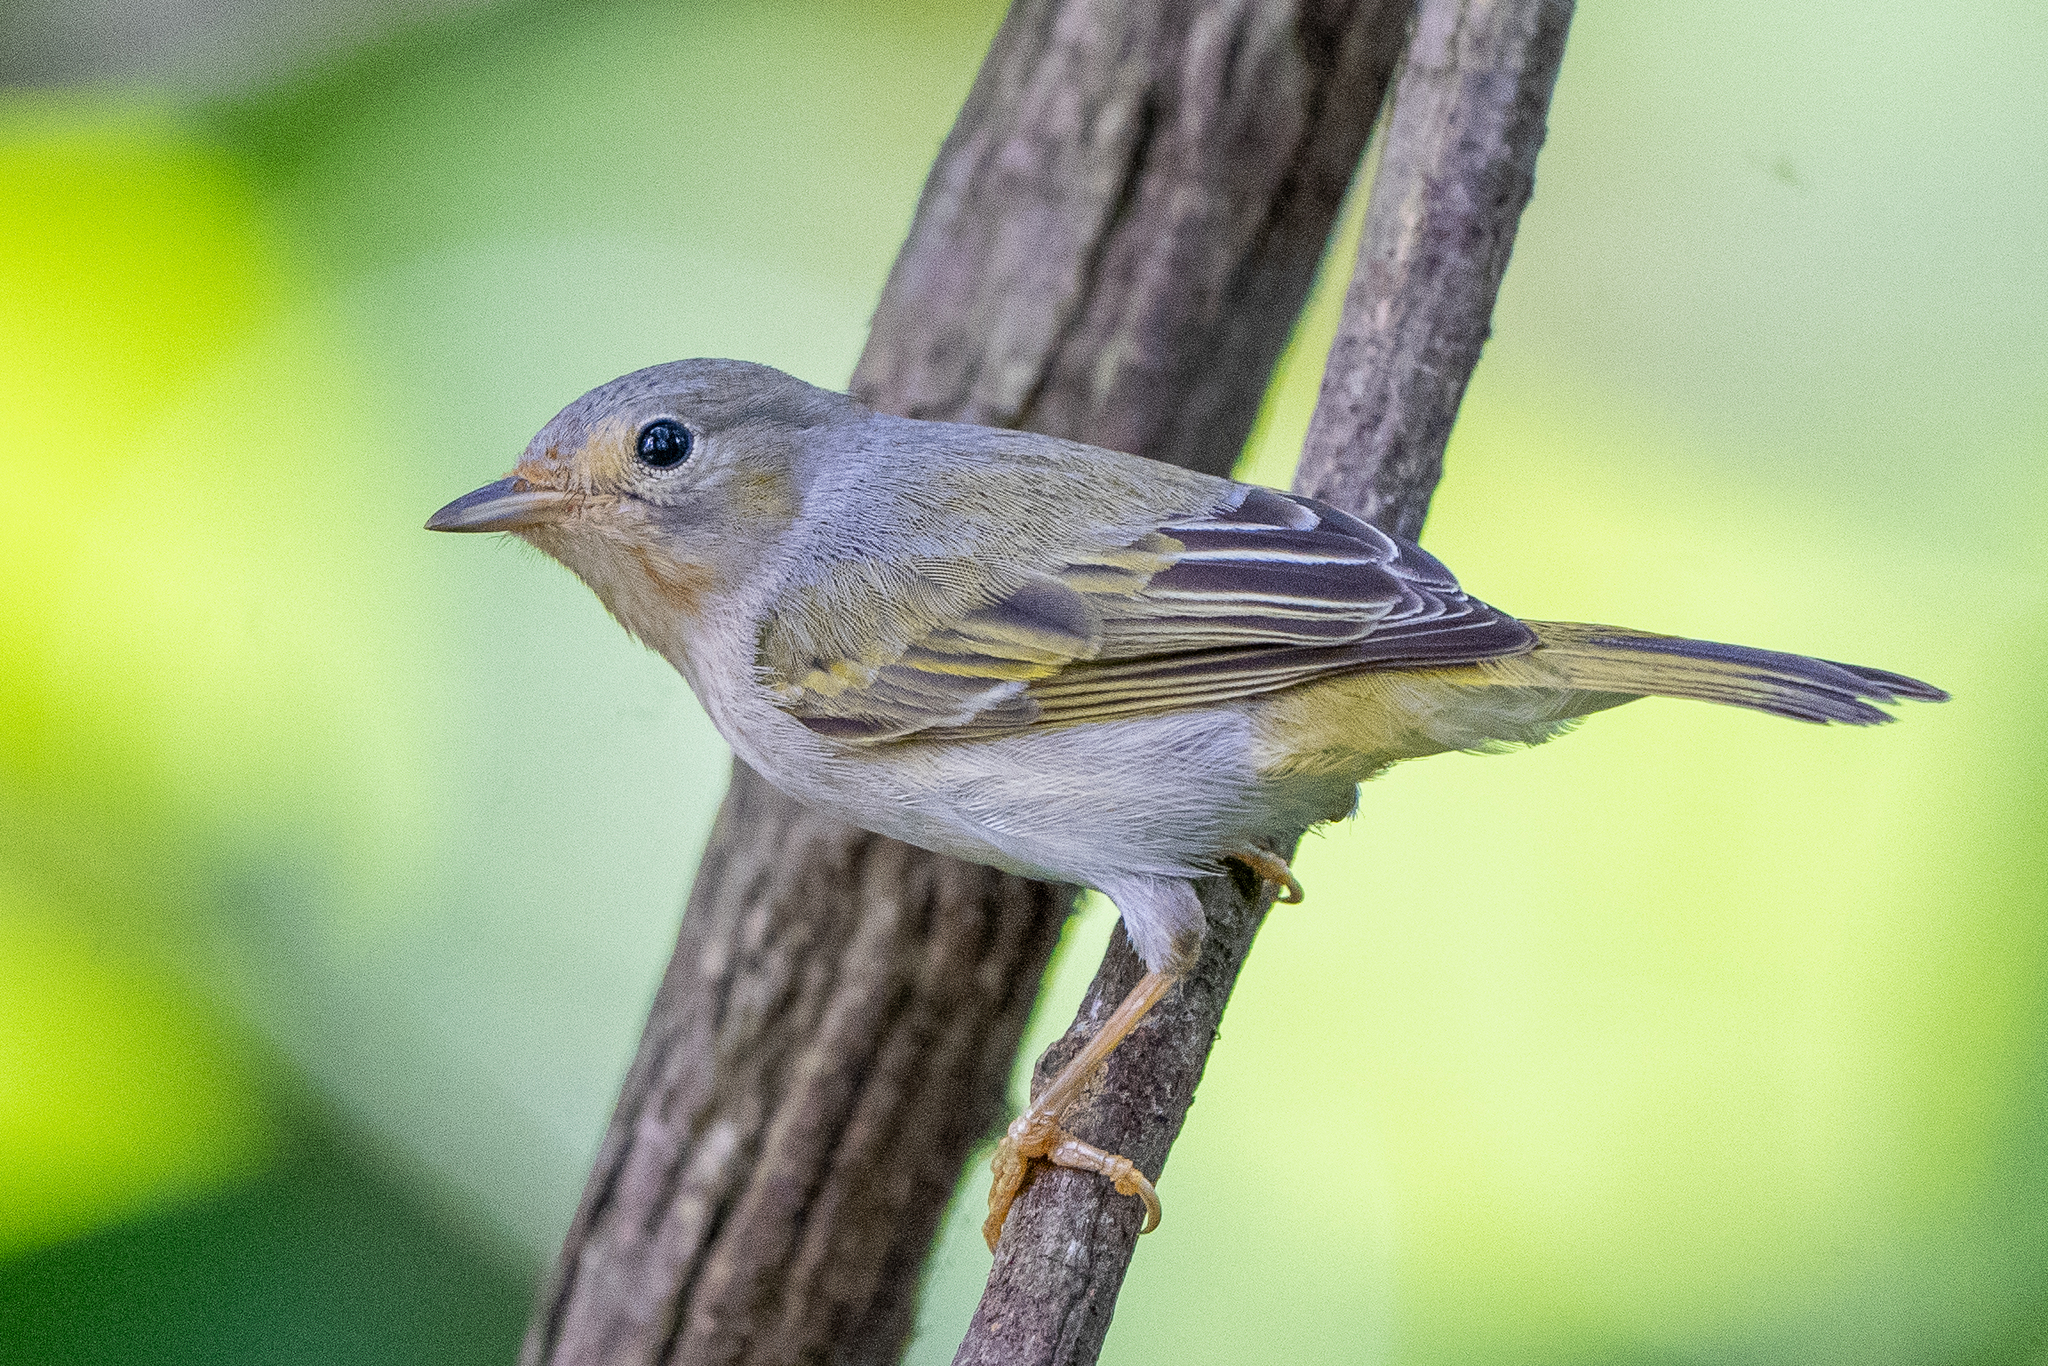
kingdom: Animalia
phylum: Chordata
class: Aves
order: Passeriformes
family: Parulidae
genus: Setophaga
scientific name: Setophaga petechia
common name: Yellow warbler
